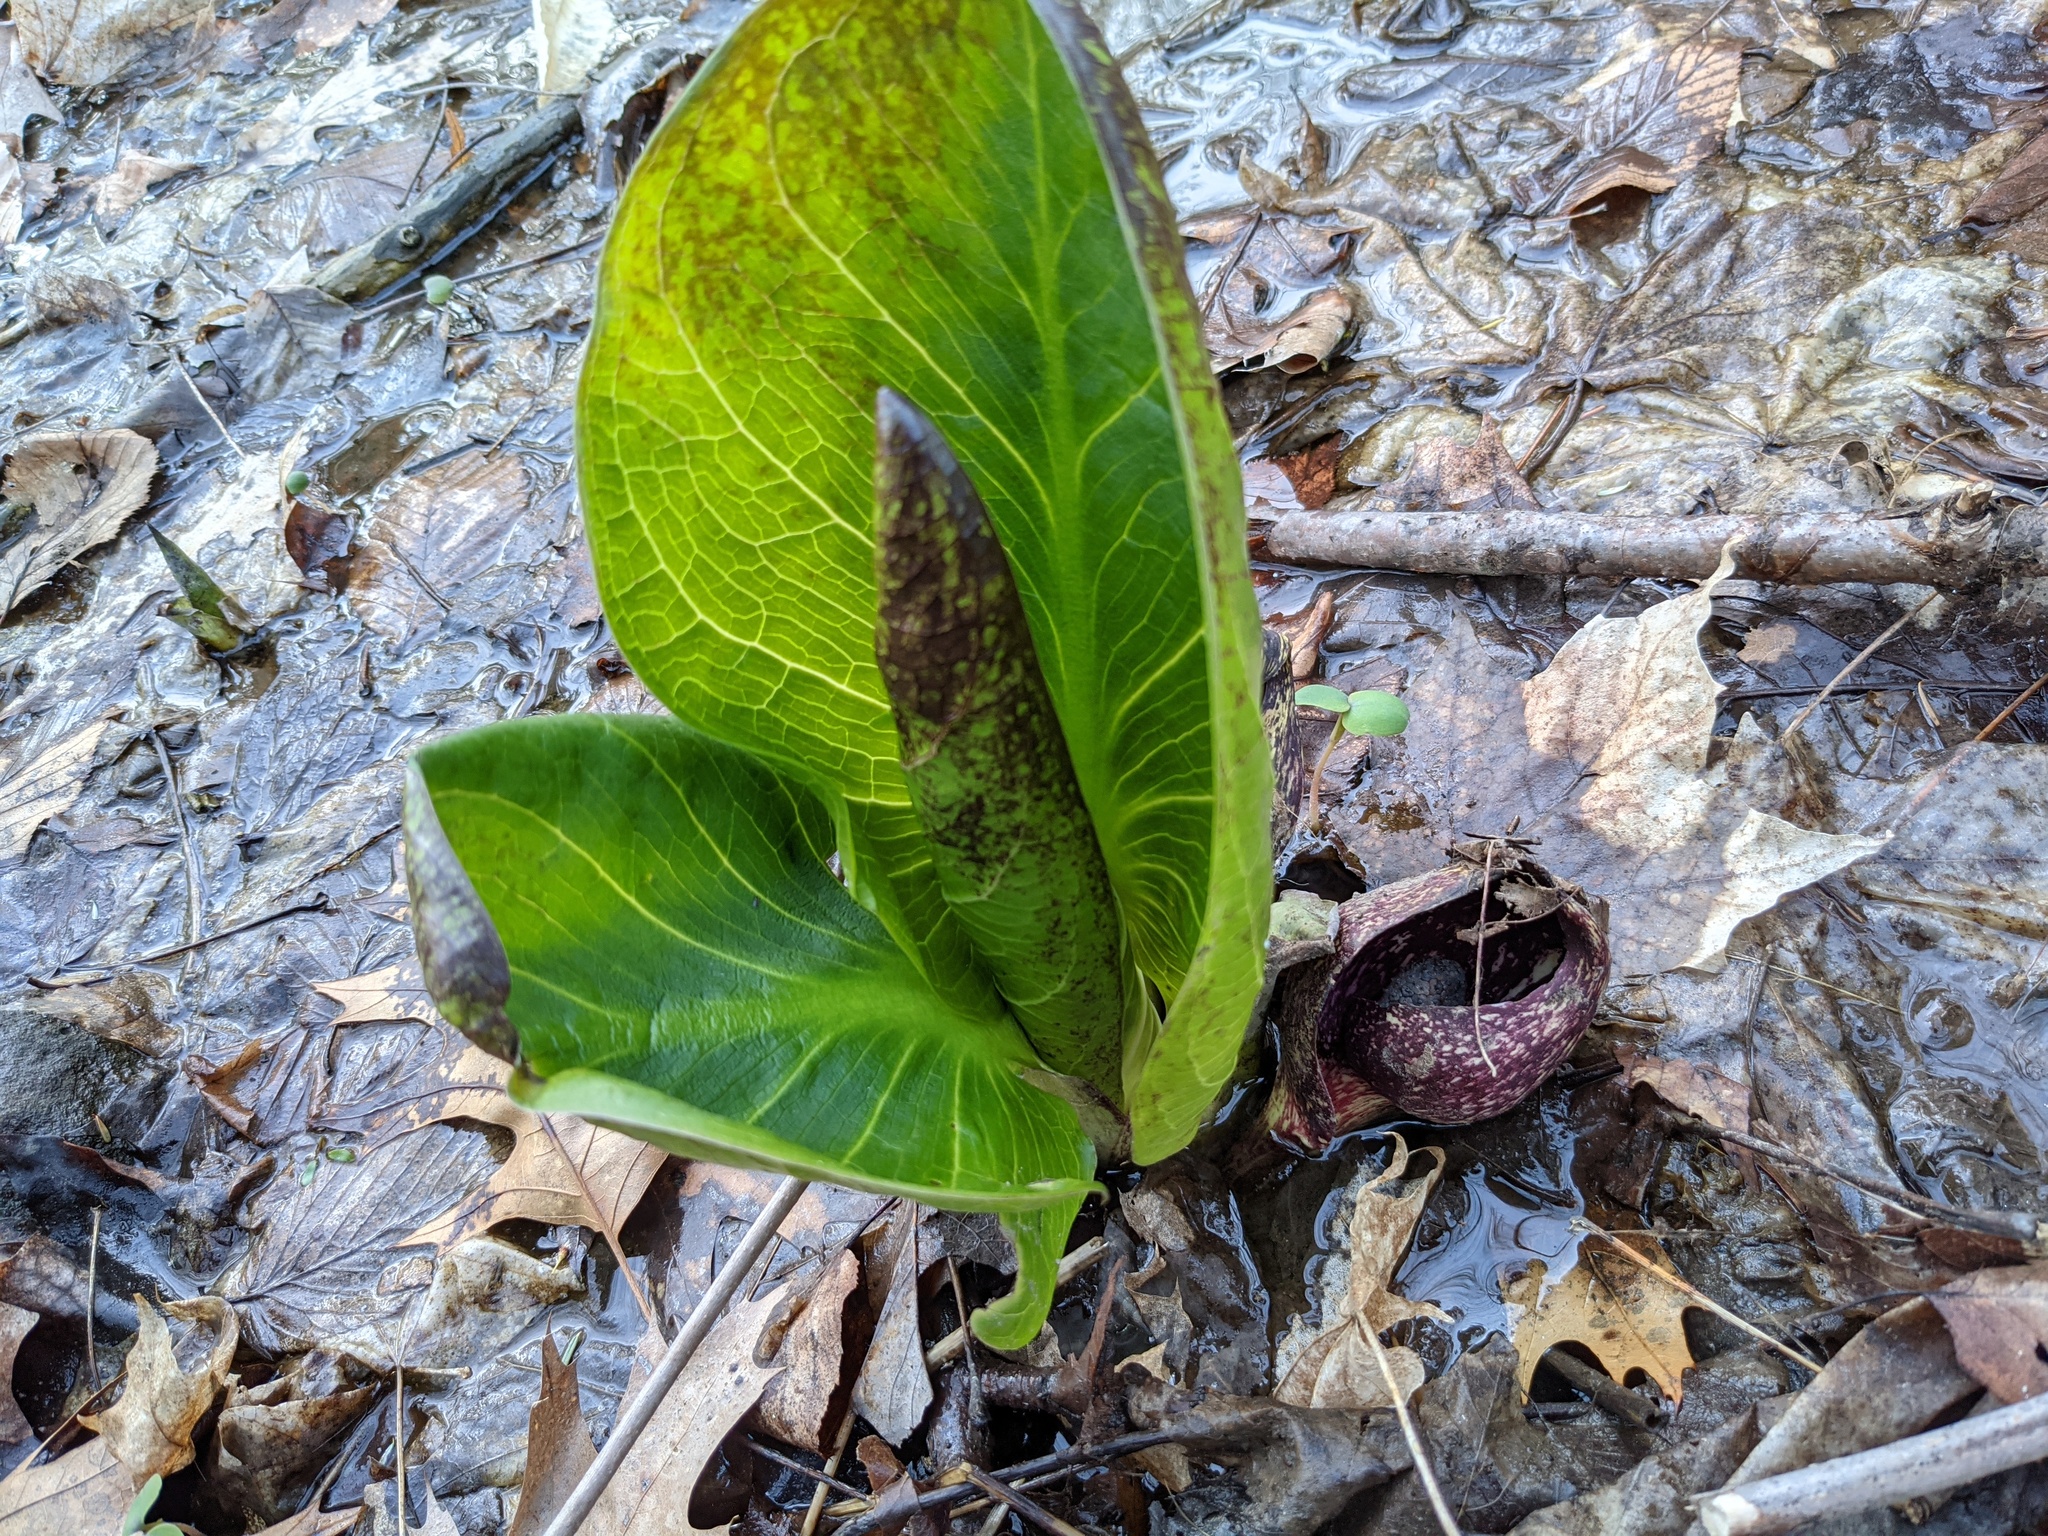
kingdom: Plantae
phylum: Tracheophyta
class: Liliopsida
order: Alismatales
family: Araceae
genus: Symplocarpus
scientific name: Symplocarpus foetidus
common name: Eastern skunk cabbage
